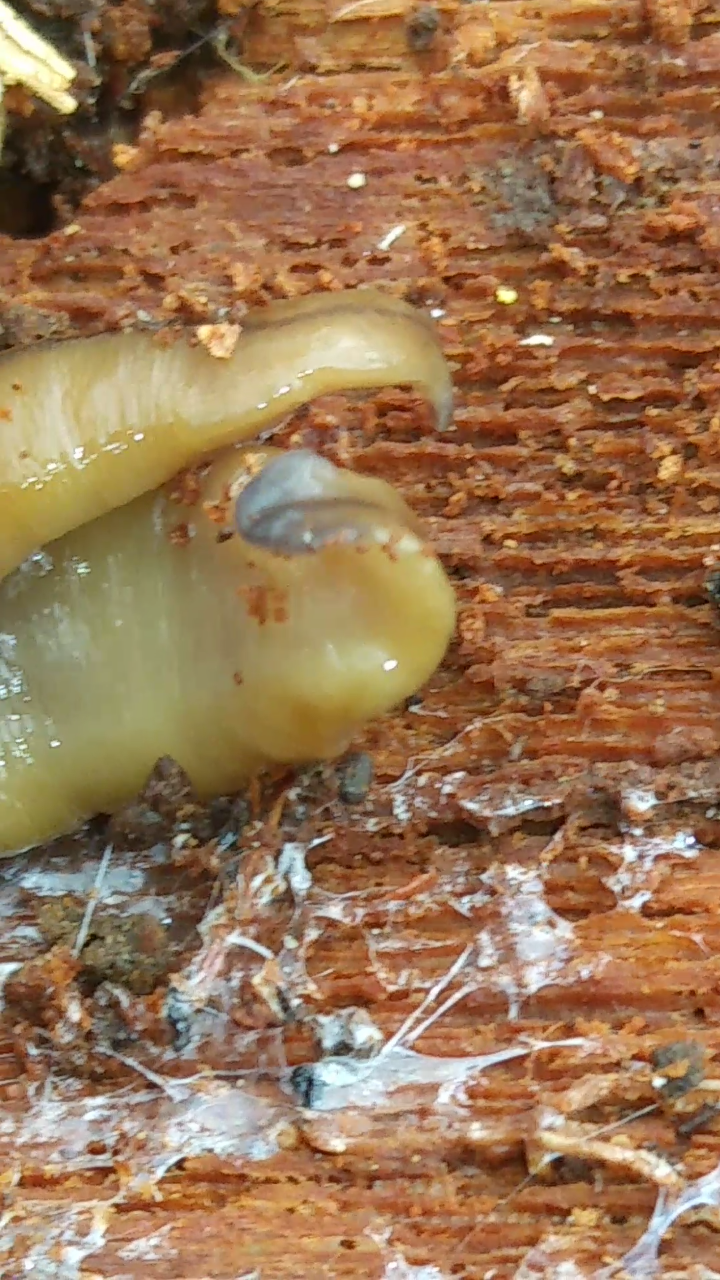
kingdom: Animalia
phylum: Platyhelminthes
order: Tricladida
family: Geoplanidae
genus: Bipalium
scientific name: Bipalium adventitium
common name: Land planarian
